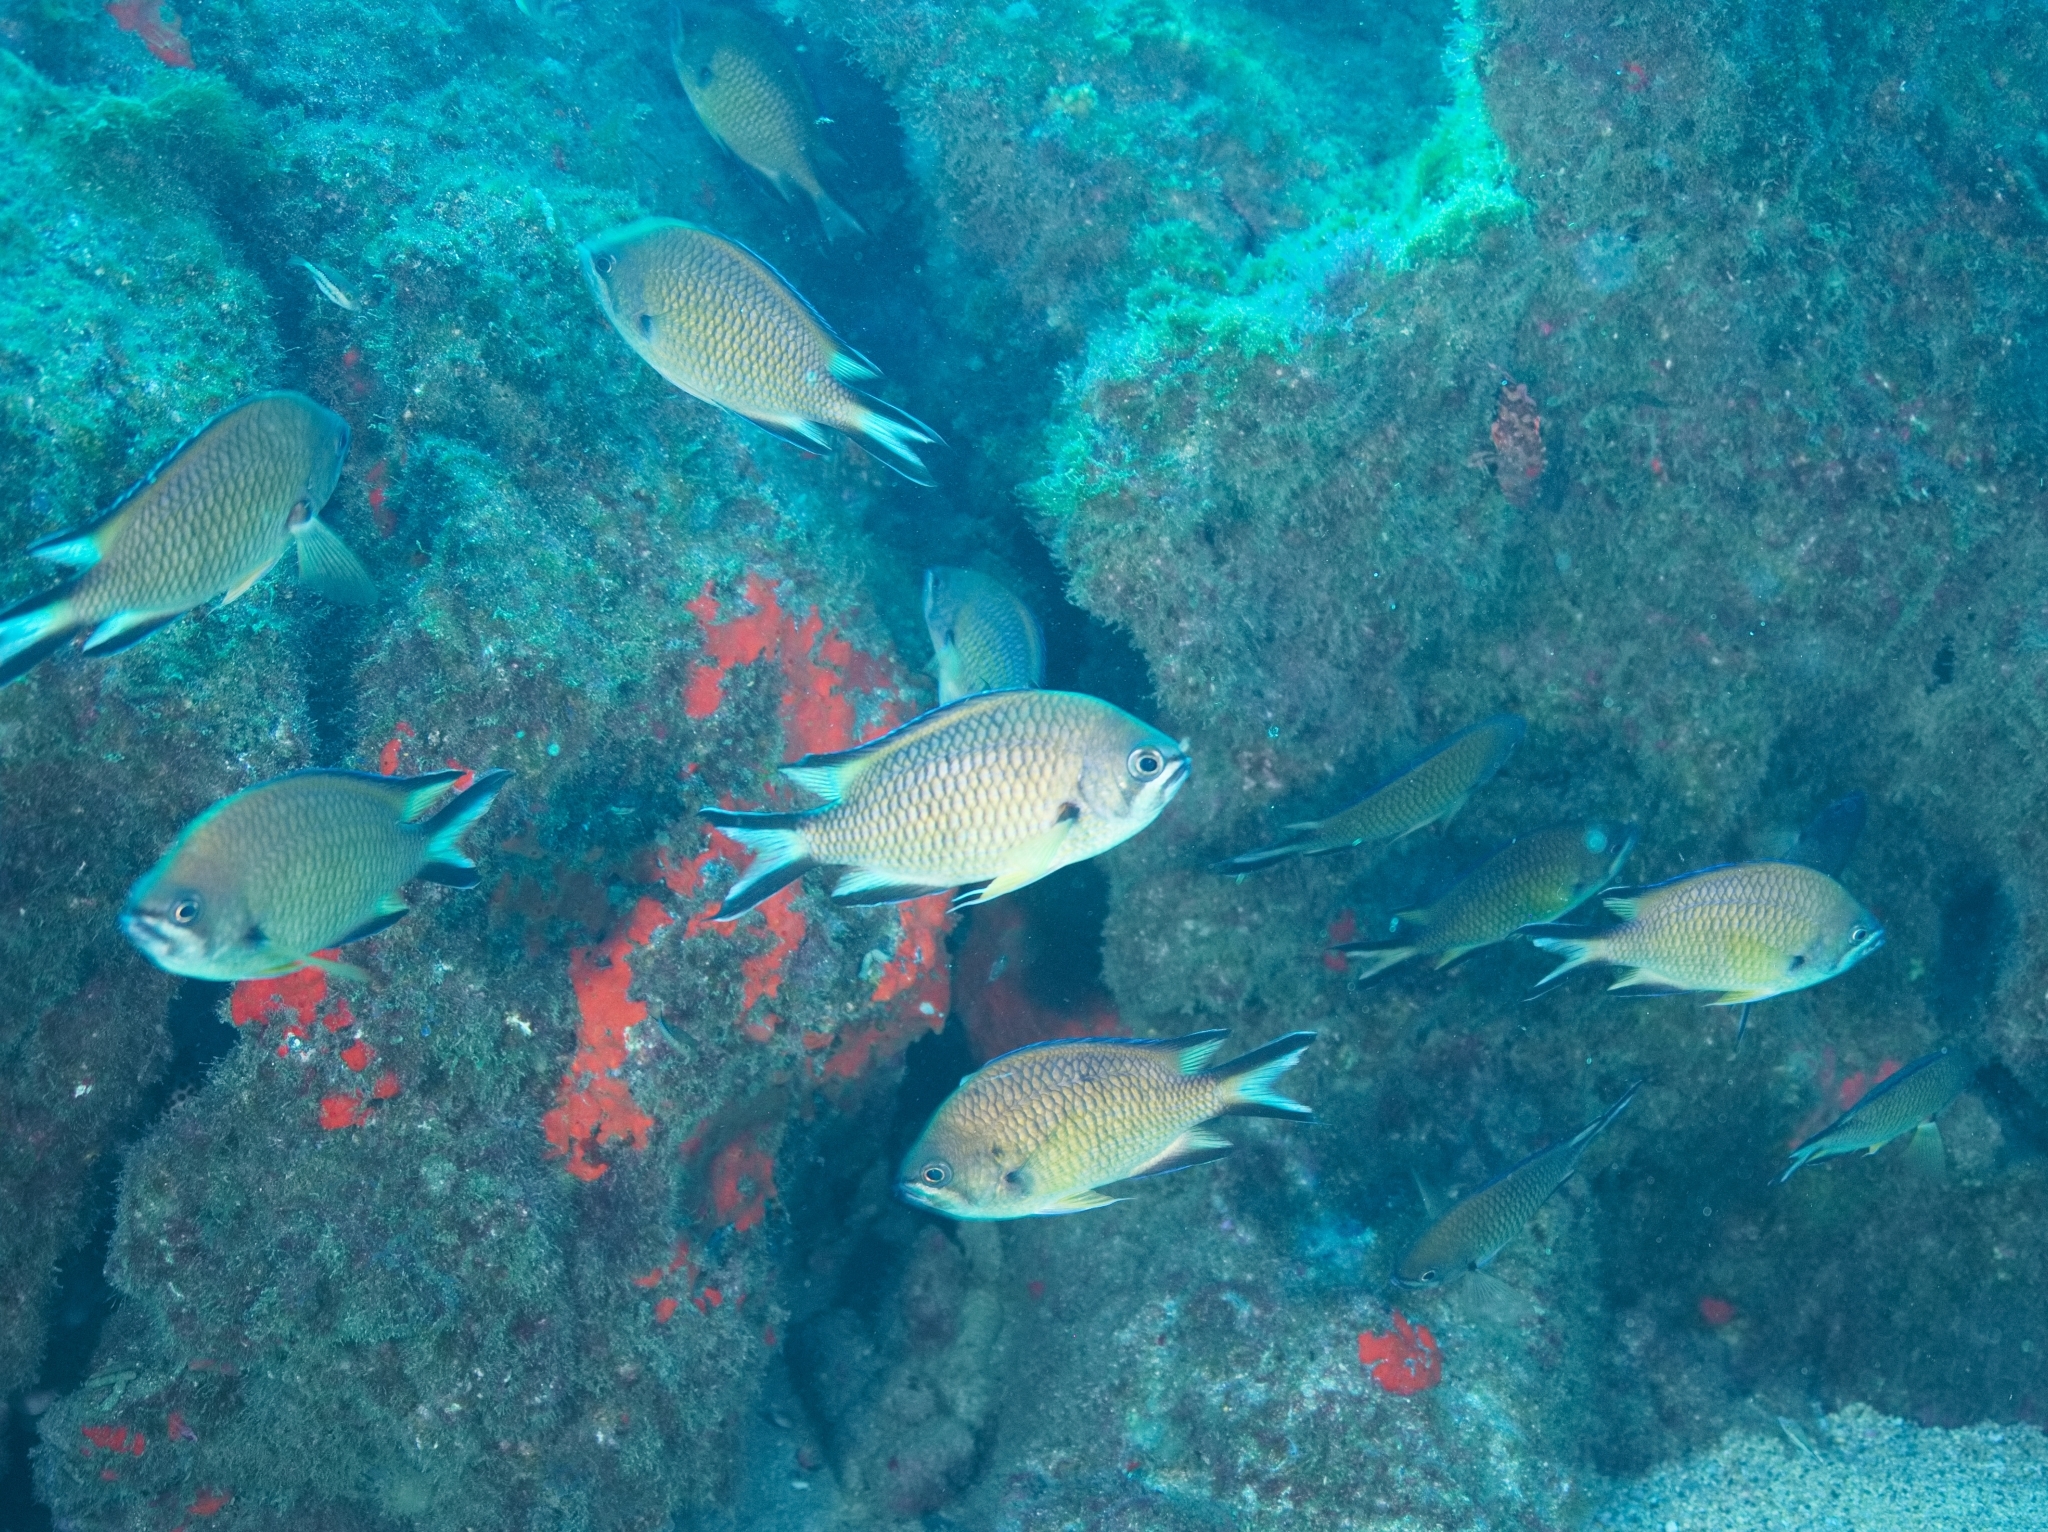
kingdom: Animalia
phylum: Chordata
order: Perciformes
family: Pomacentridae
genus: Chromis
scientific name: Chromis limbata
